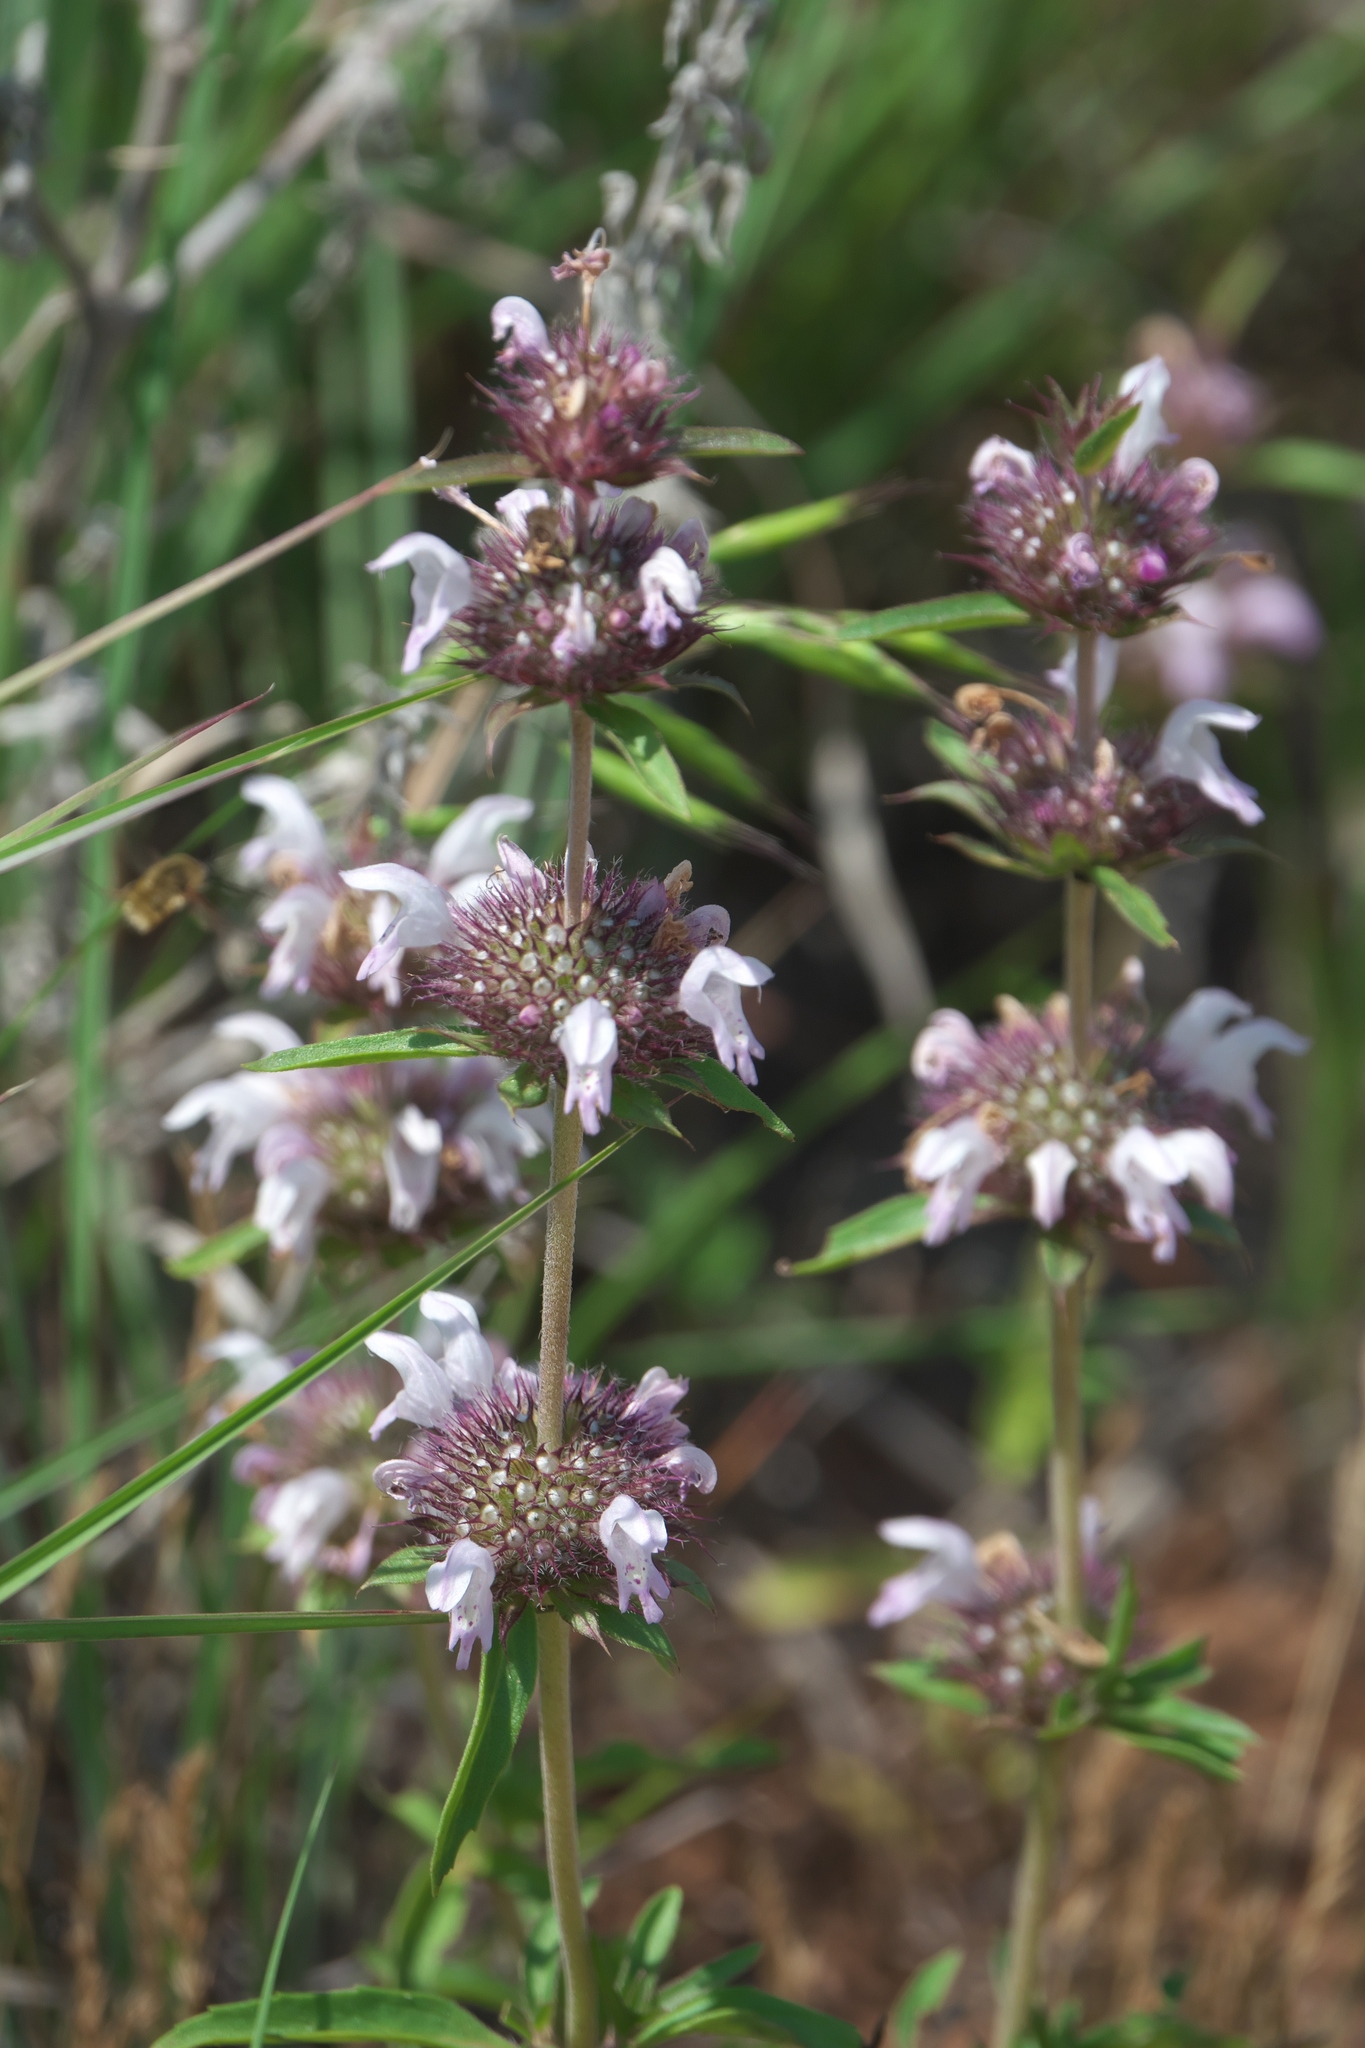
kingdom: Plantae
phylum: Tracheophyta
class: Magnoliopsida
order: Lamiales
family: Lamiaceae
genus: Monarda
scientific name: Monarda clinopodioides
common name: Basil beebalm
